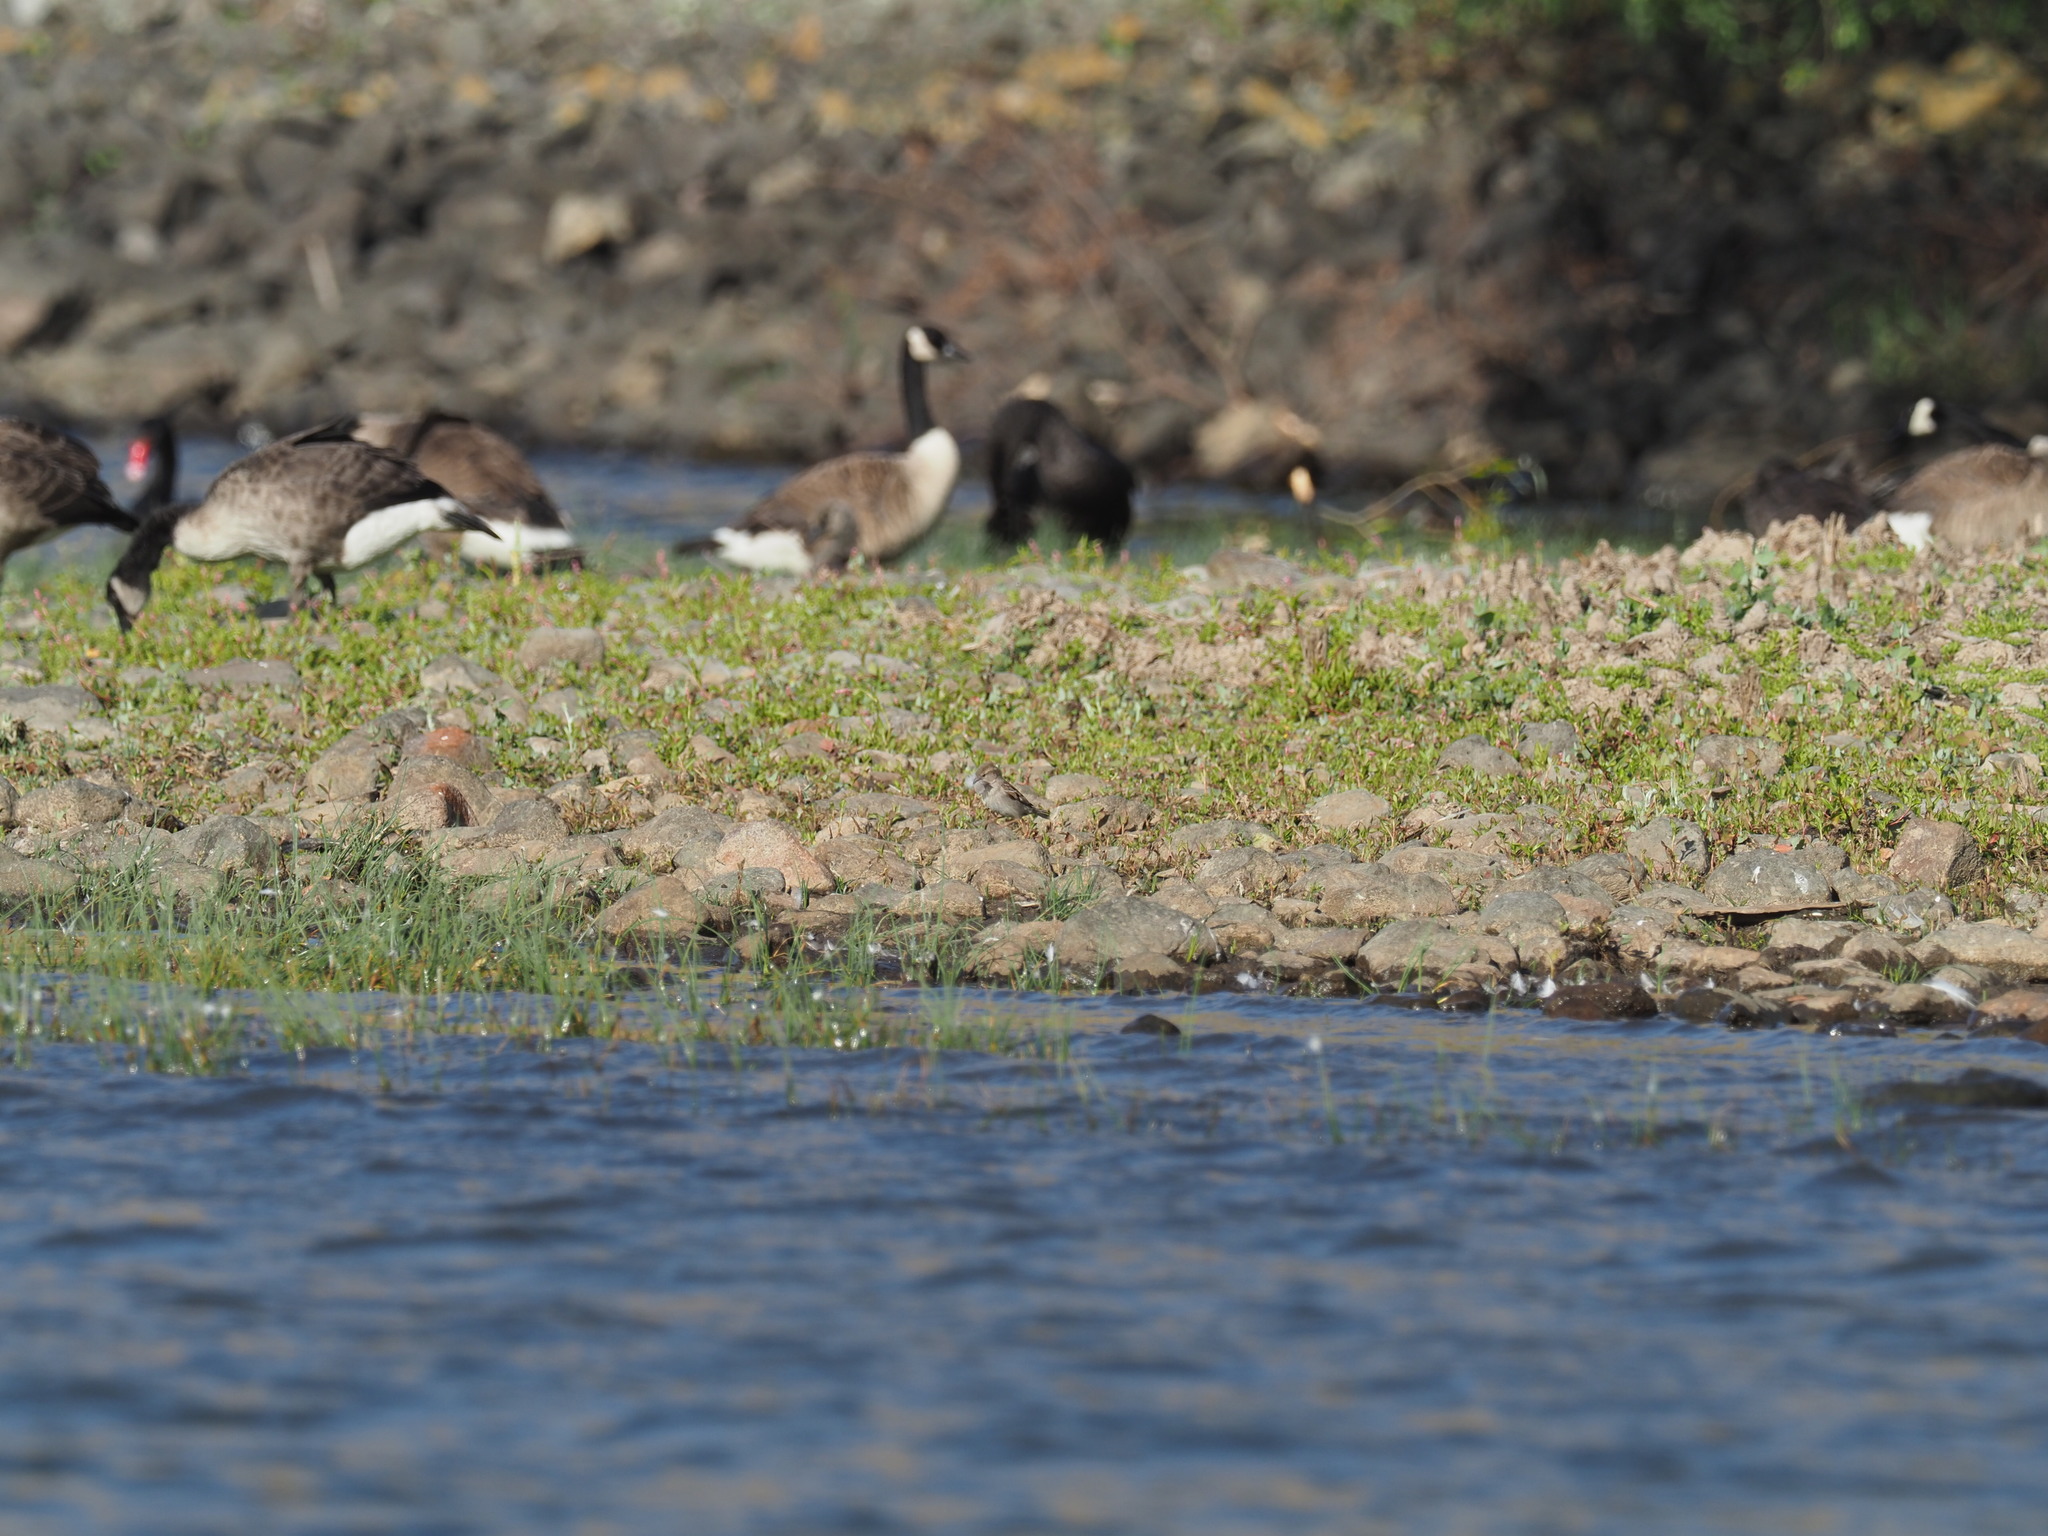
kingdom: Animalia
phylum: Chordata
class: Aves
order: Passeriformes
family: Passeridae
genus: Passer
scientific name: Passer domesticus
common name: House sparrow
